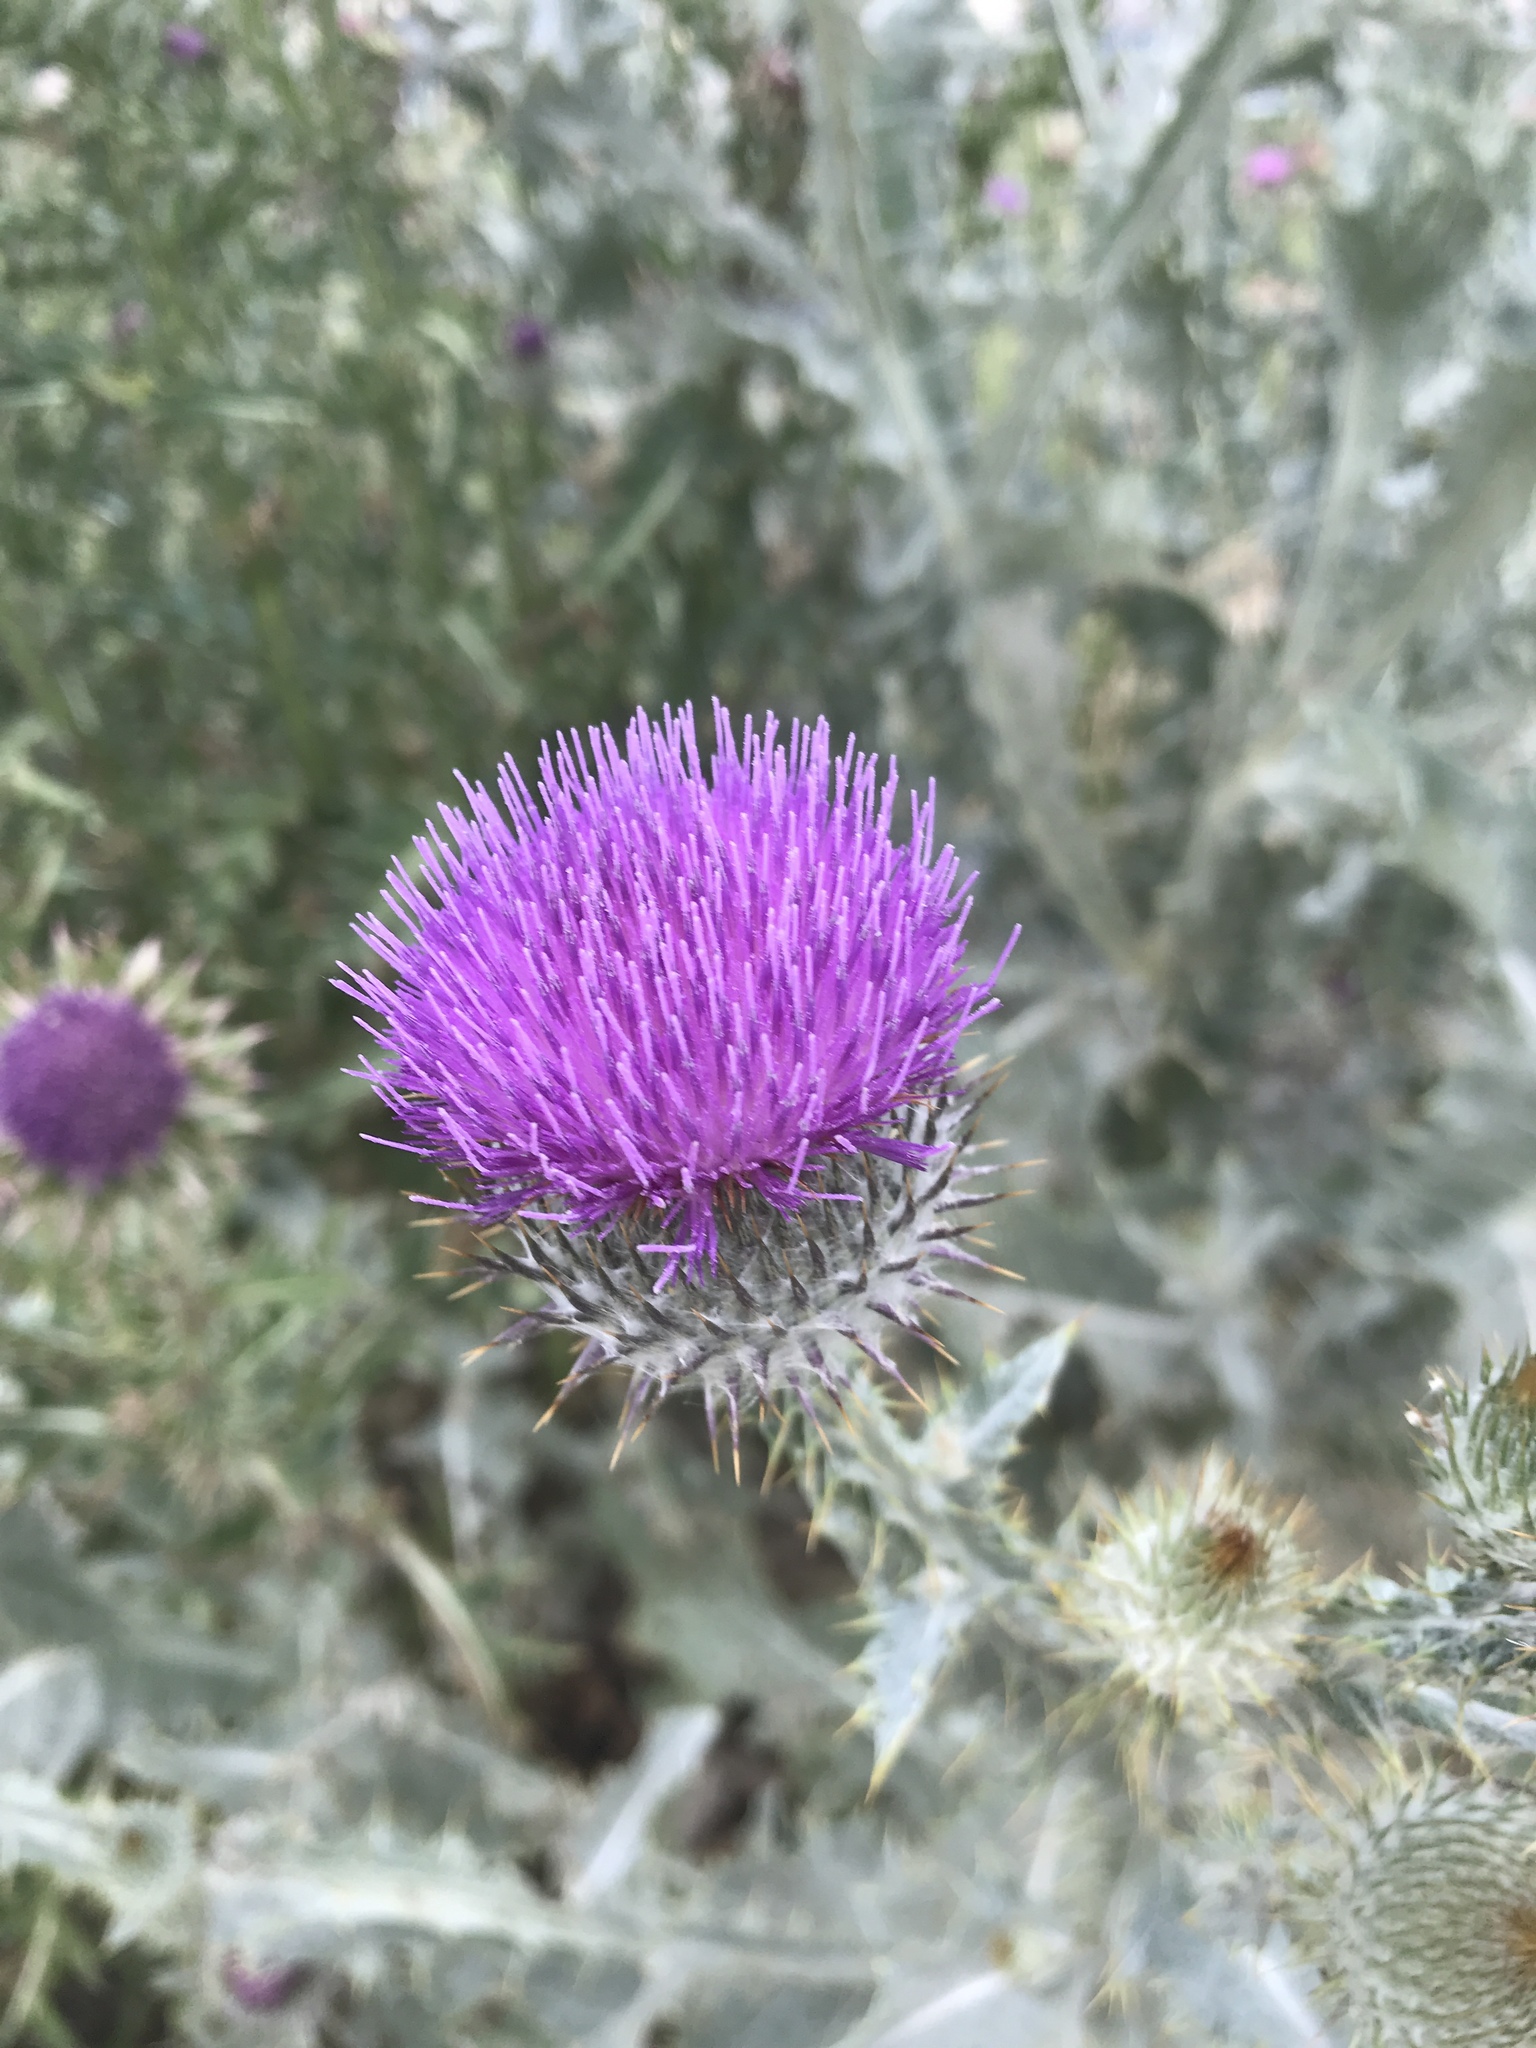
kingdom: Plantae
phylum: Tracheophyta
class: Magnoliopsida
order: Asterales
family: Asteraceae
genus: Onopordum
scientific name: Onopordum acanthium
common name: Scotch thistle
